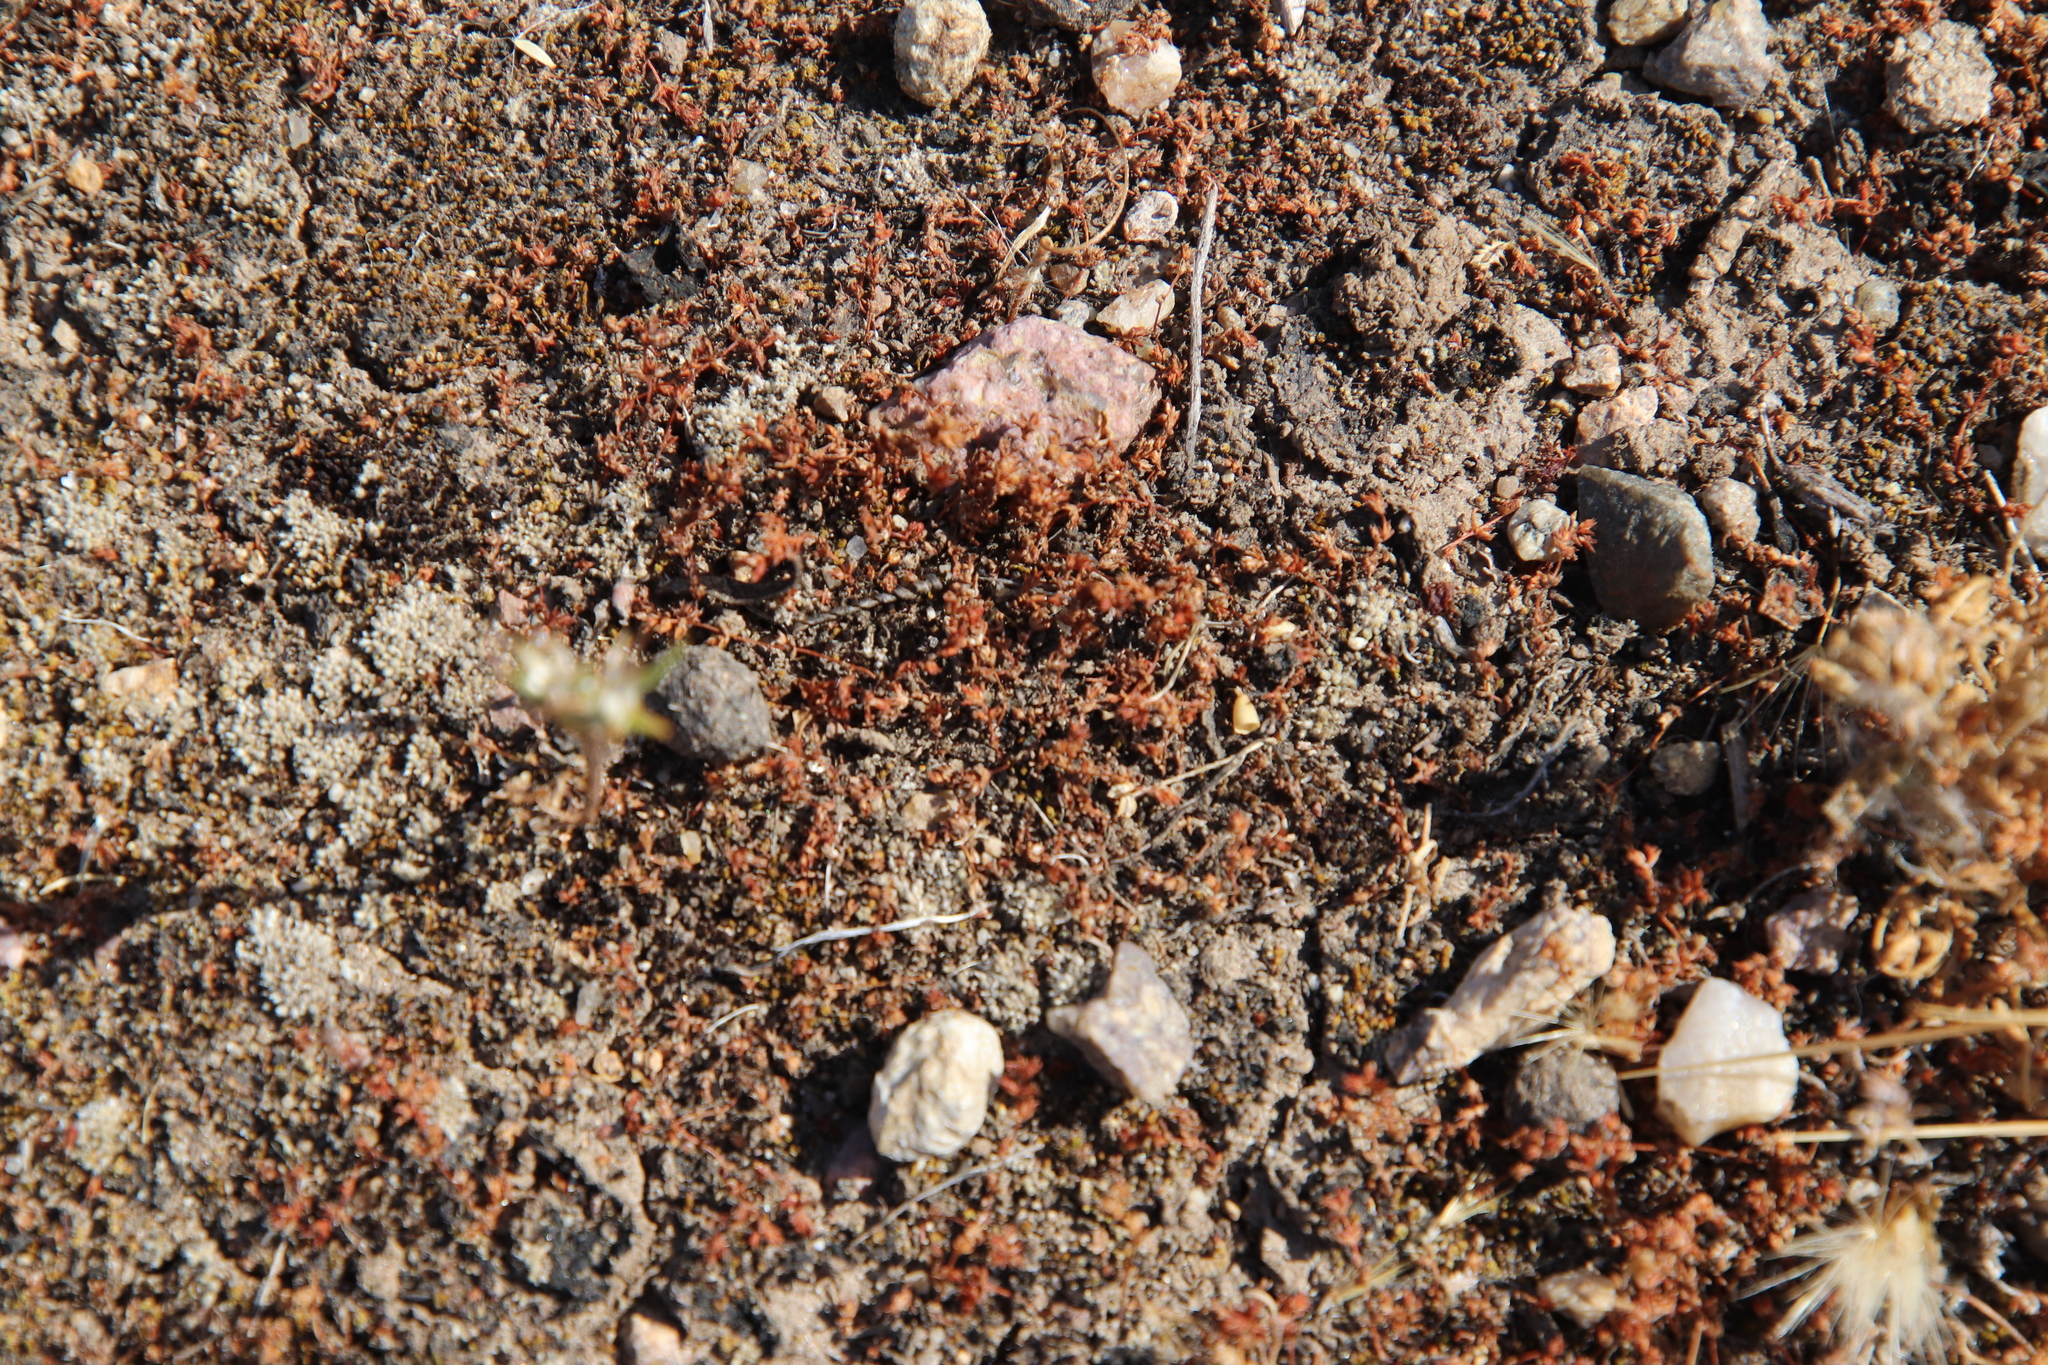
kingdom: Plantae
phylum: Tracheophyta
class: Magnoliopsida
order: Saxifragales
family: Crassulaceae
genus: Crassula
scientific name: Crassula connata
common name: Erect pygmyweed
